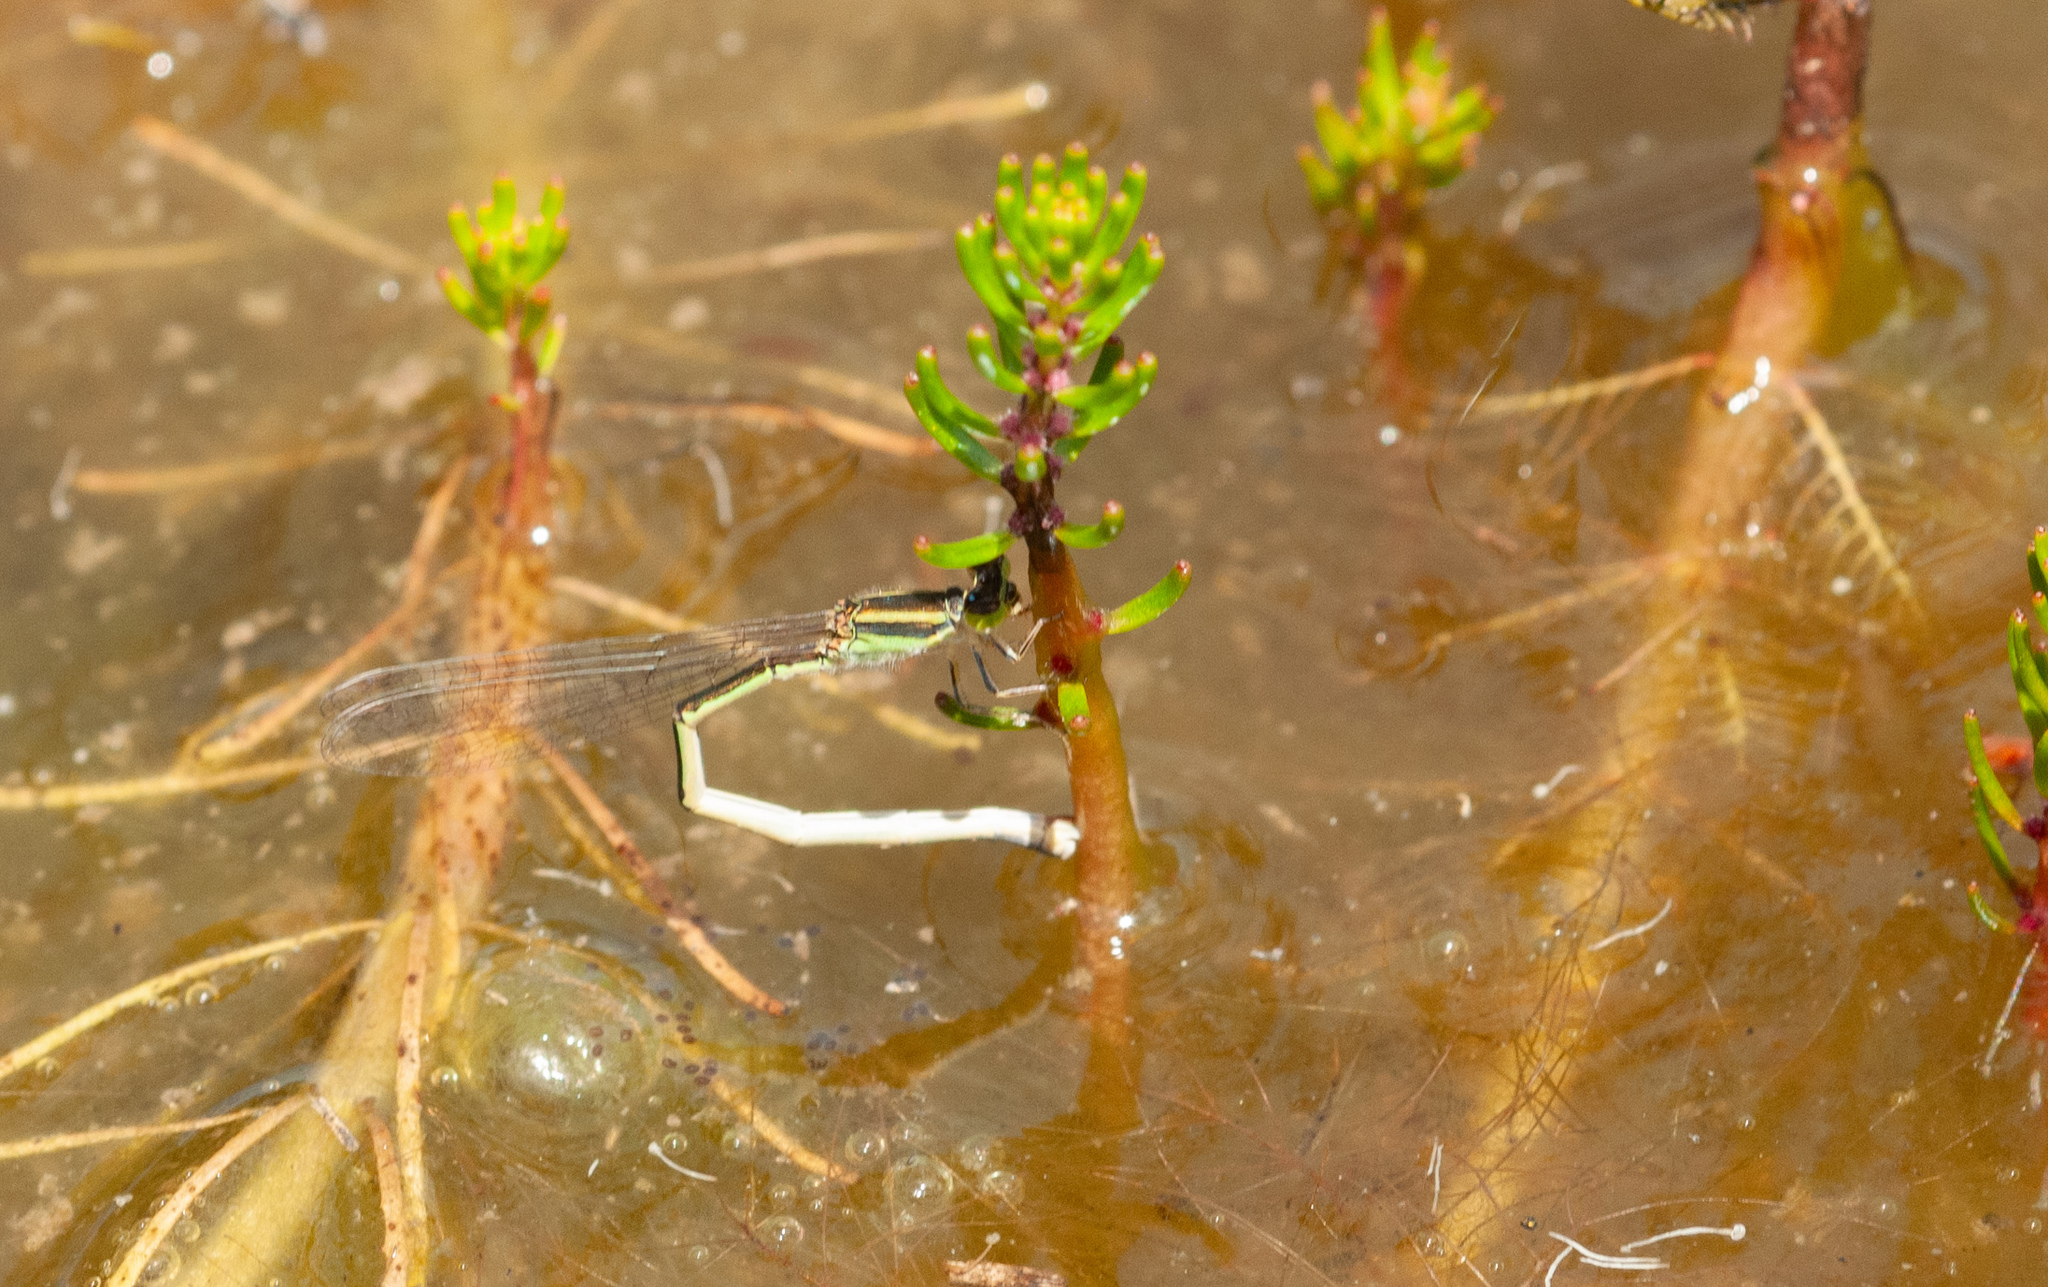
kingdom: Animalia
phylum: Arthropoda
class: Insecta
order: Odonata
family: Coenagrionidae
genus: Ischnura
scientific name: Ischnura aurora
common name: Gossamer damselfly
